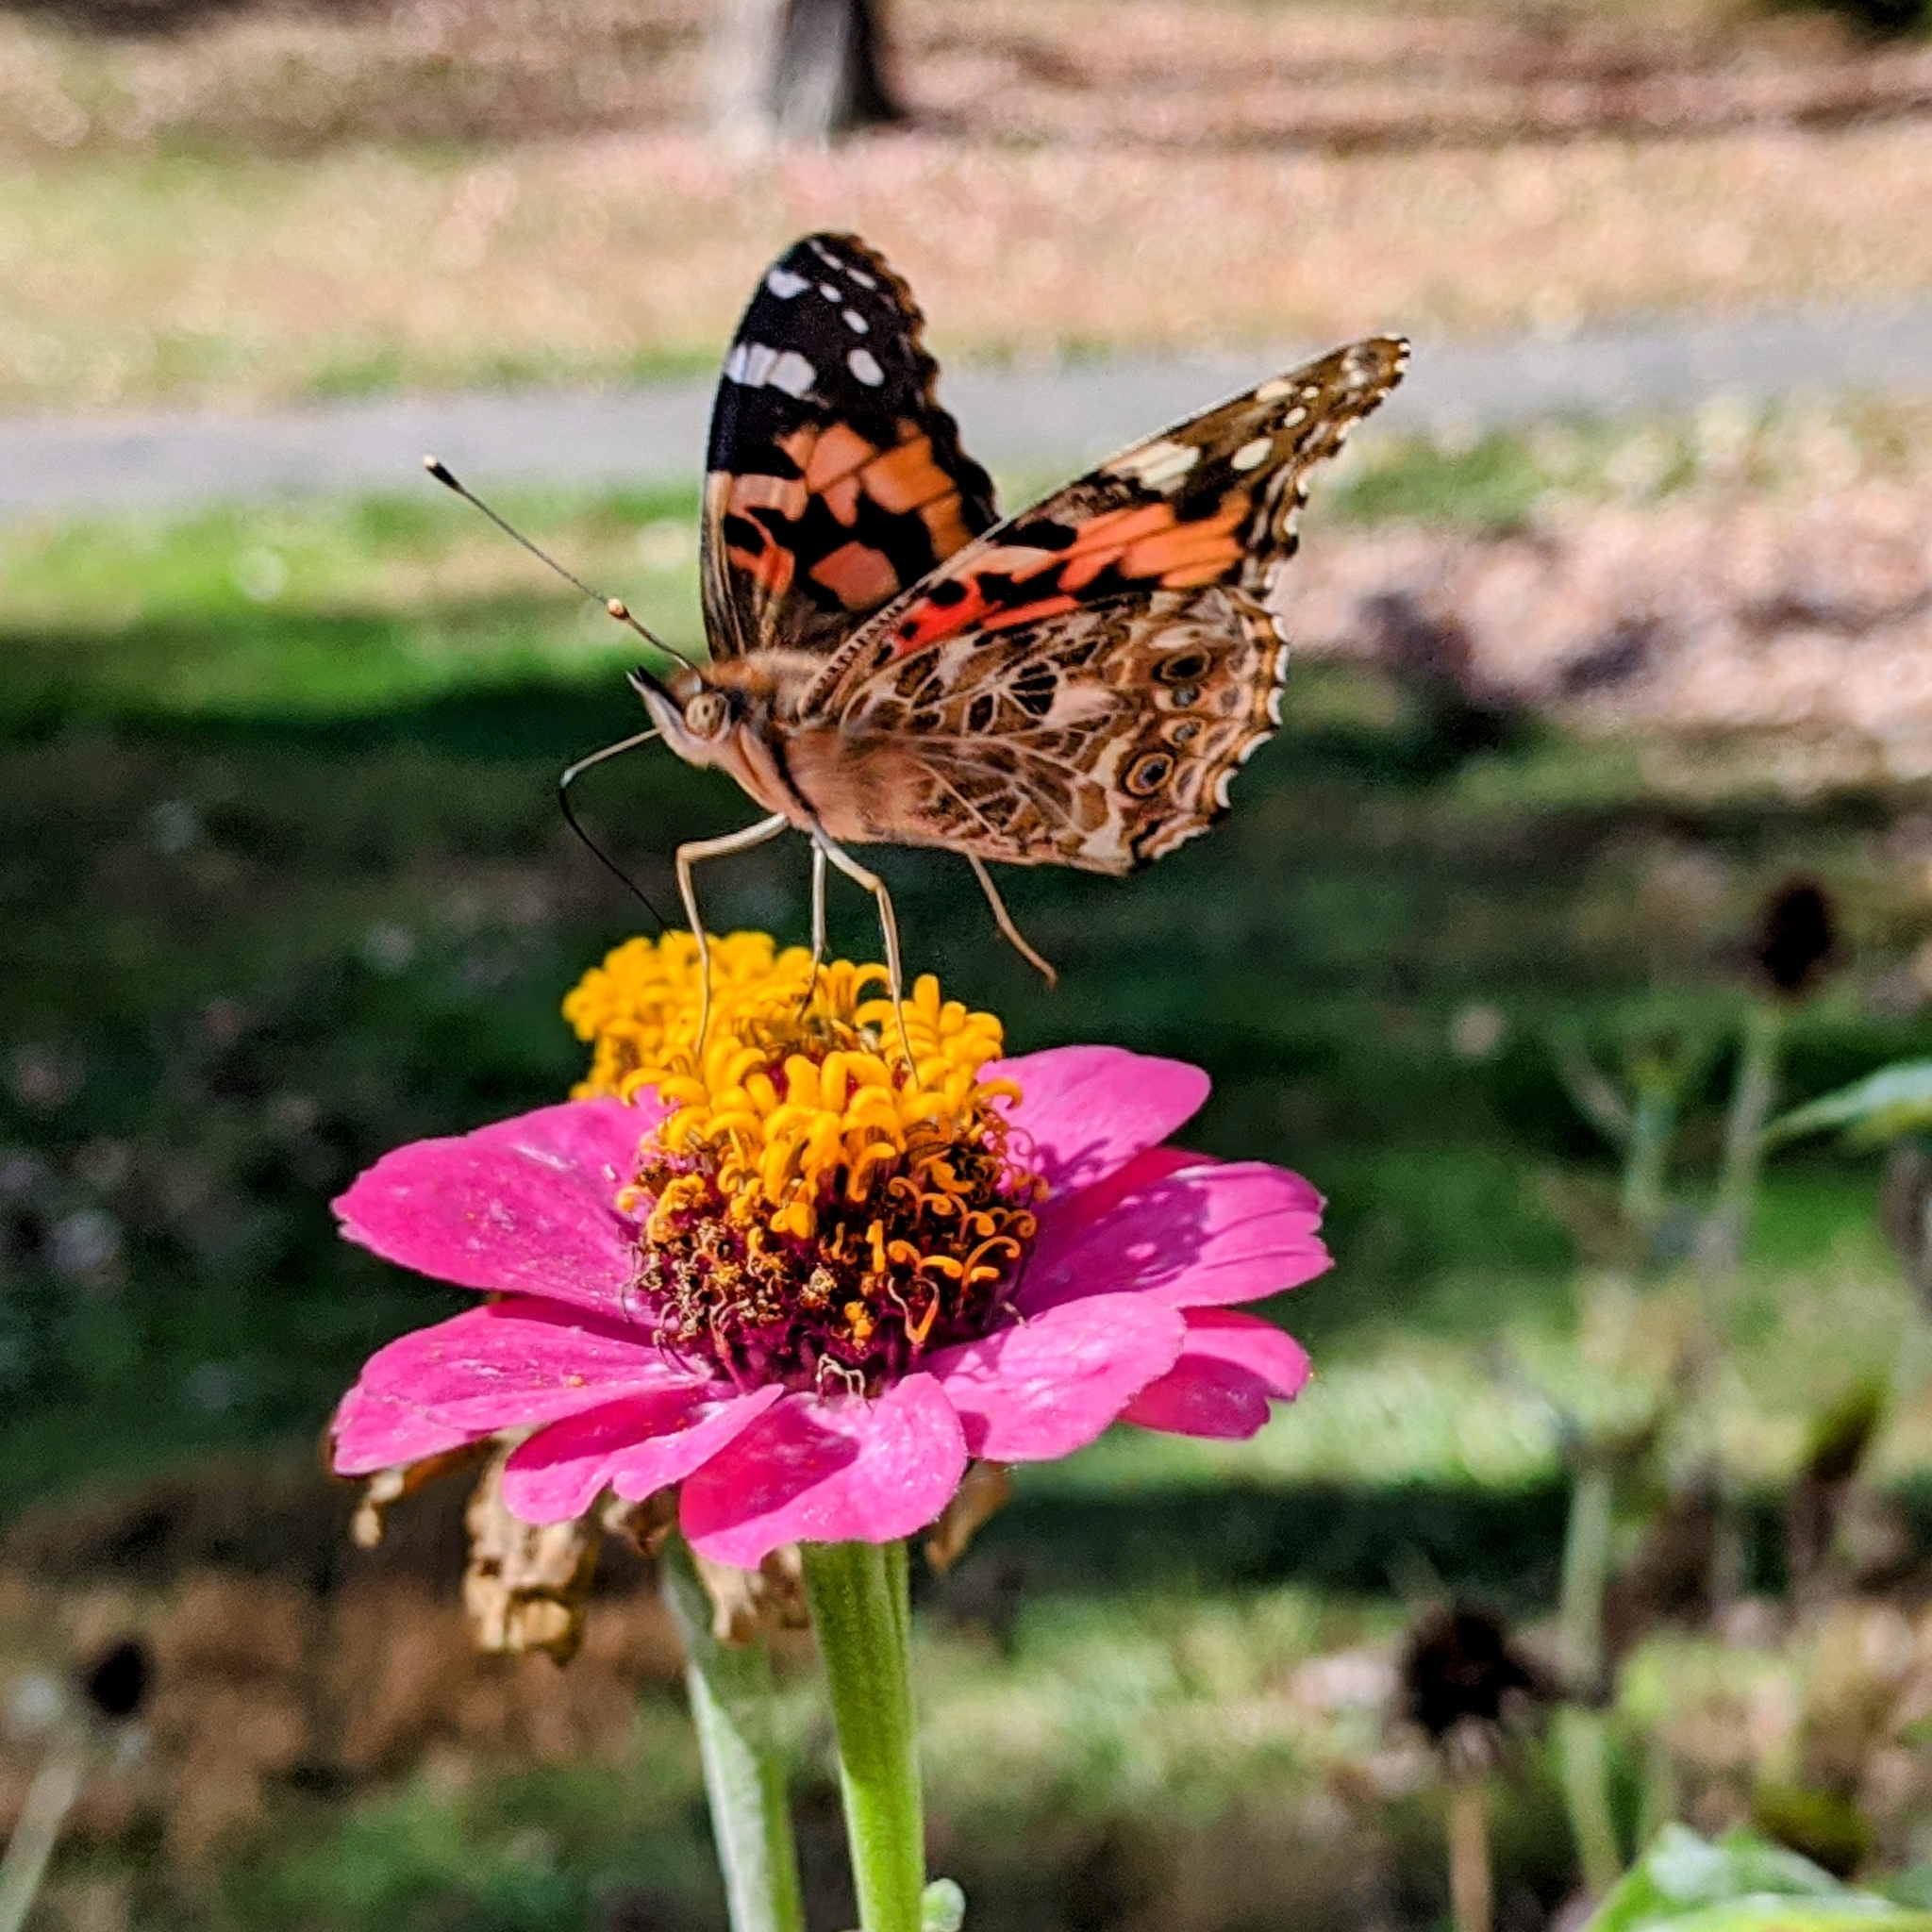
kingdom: Animalia
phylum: Arthropoda
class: Insecta
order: Lepidoptera
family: Nymphalidae
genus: Vanessa
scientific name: Vanessa cardui
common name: Painted lady
